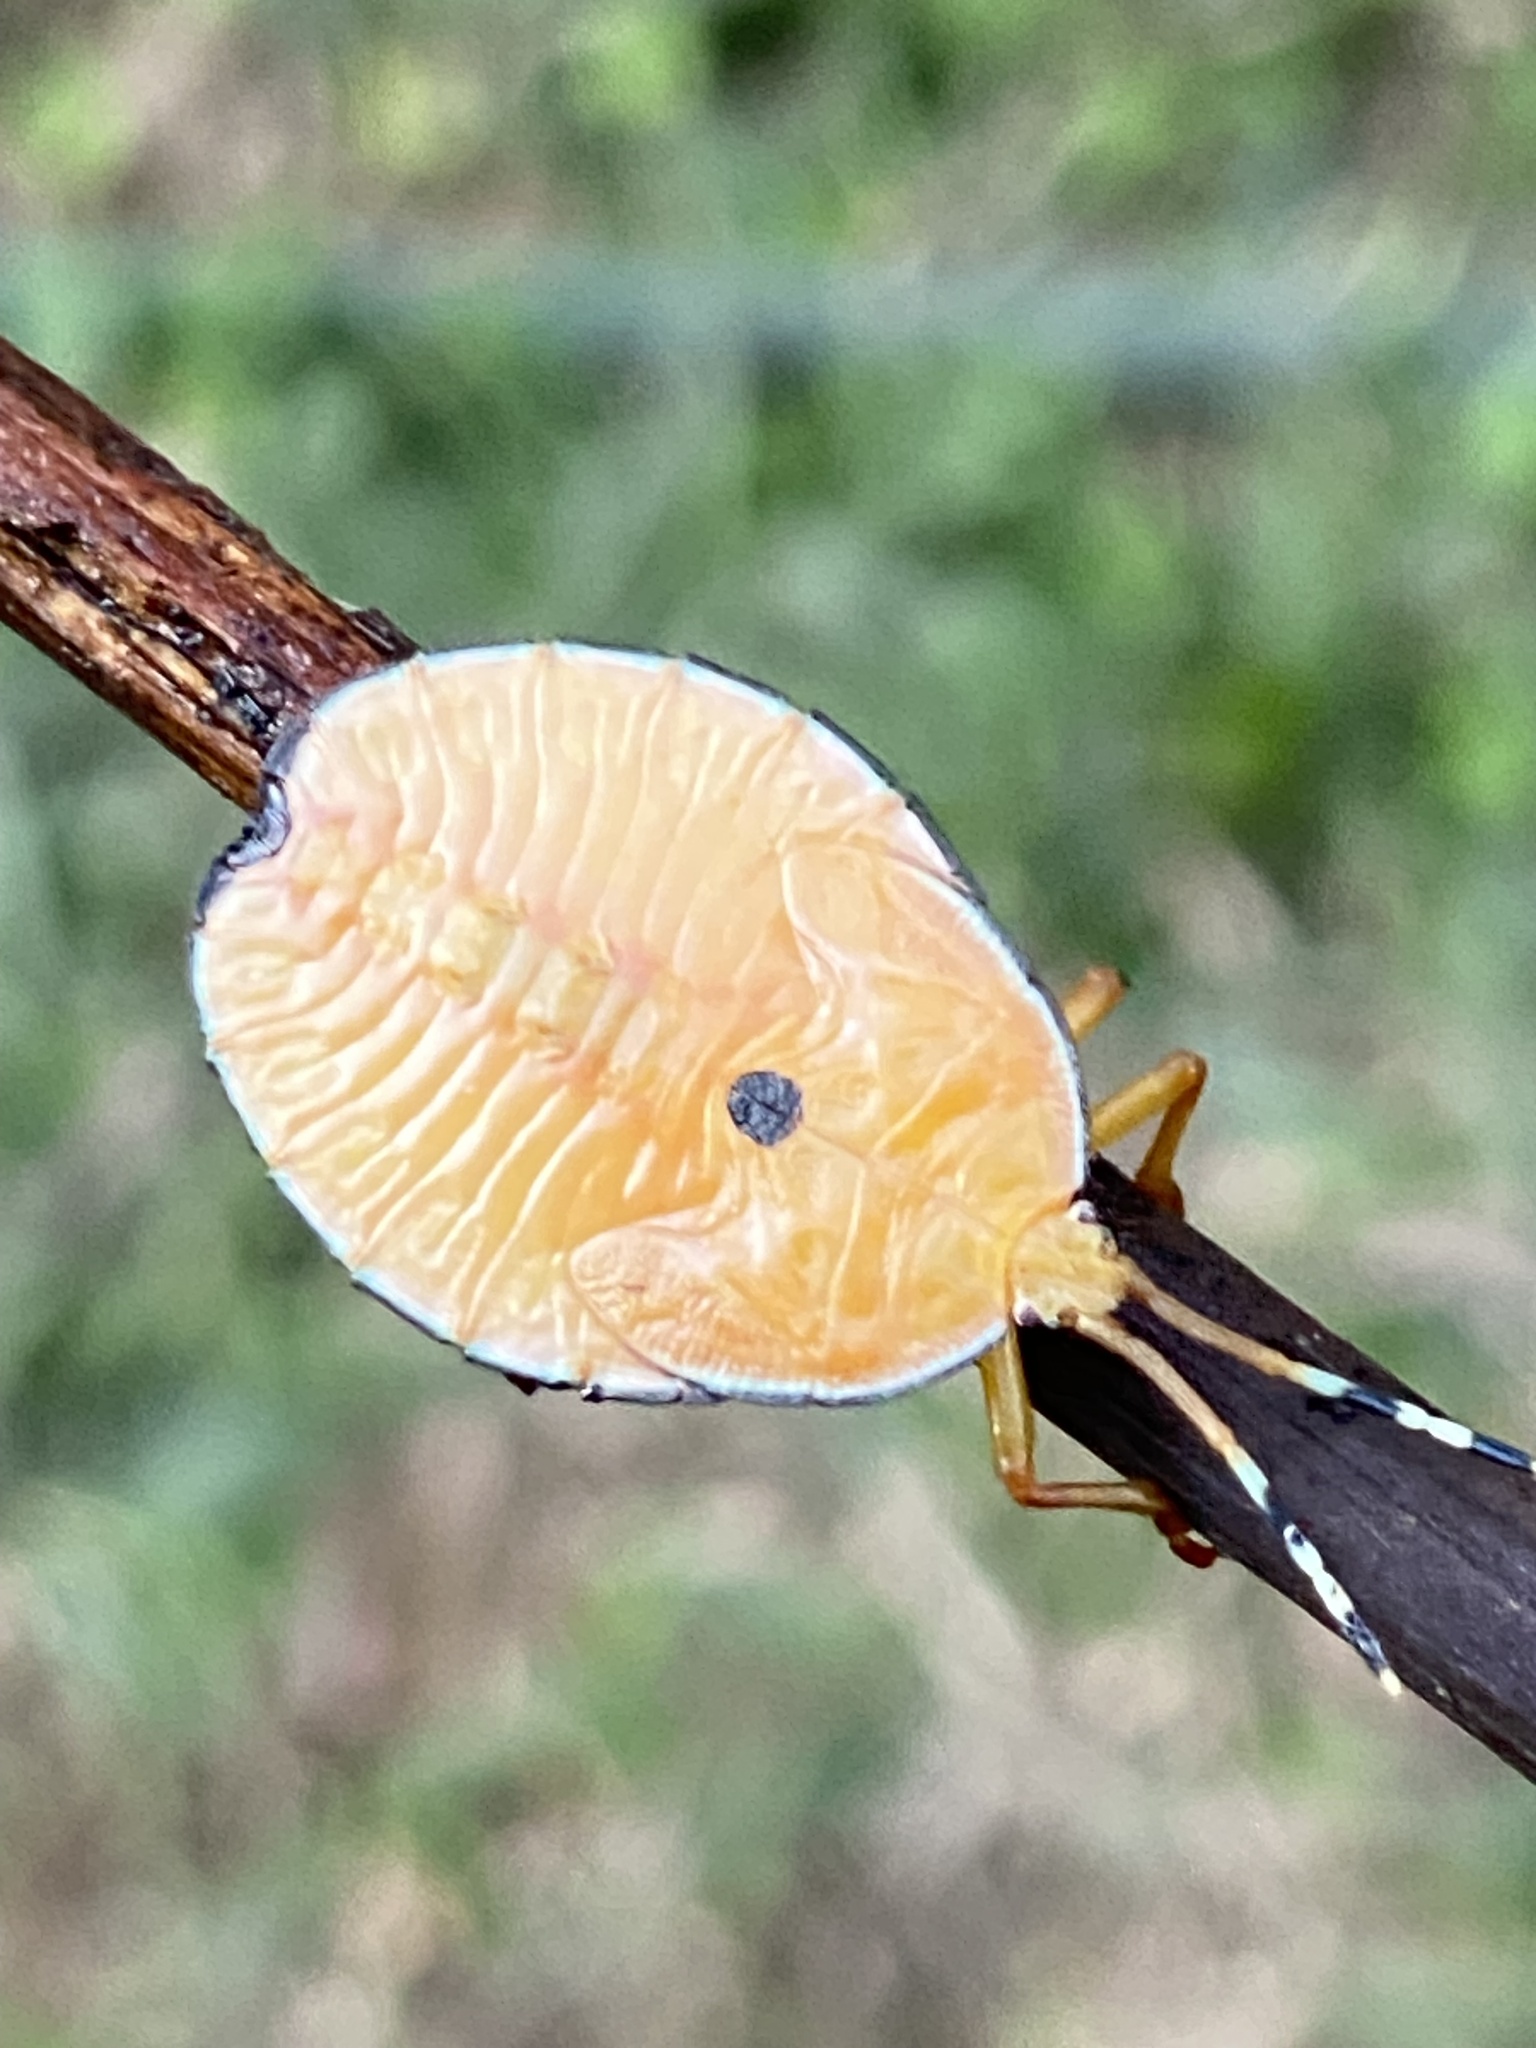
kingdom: Animalia
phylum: Arthropoda
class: Insecta
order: Hemiptera
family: Tessaratomidae
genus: Musgraveia
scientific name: Musgraveia sulciventris
